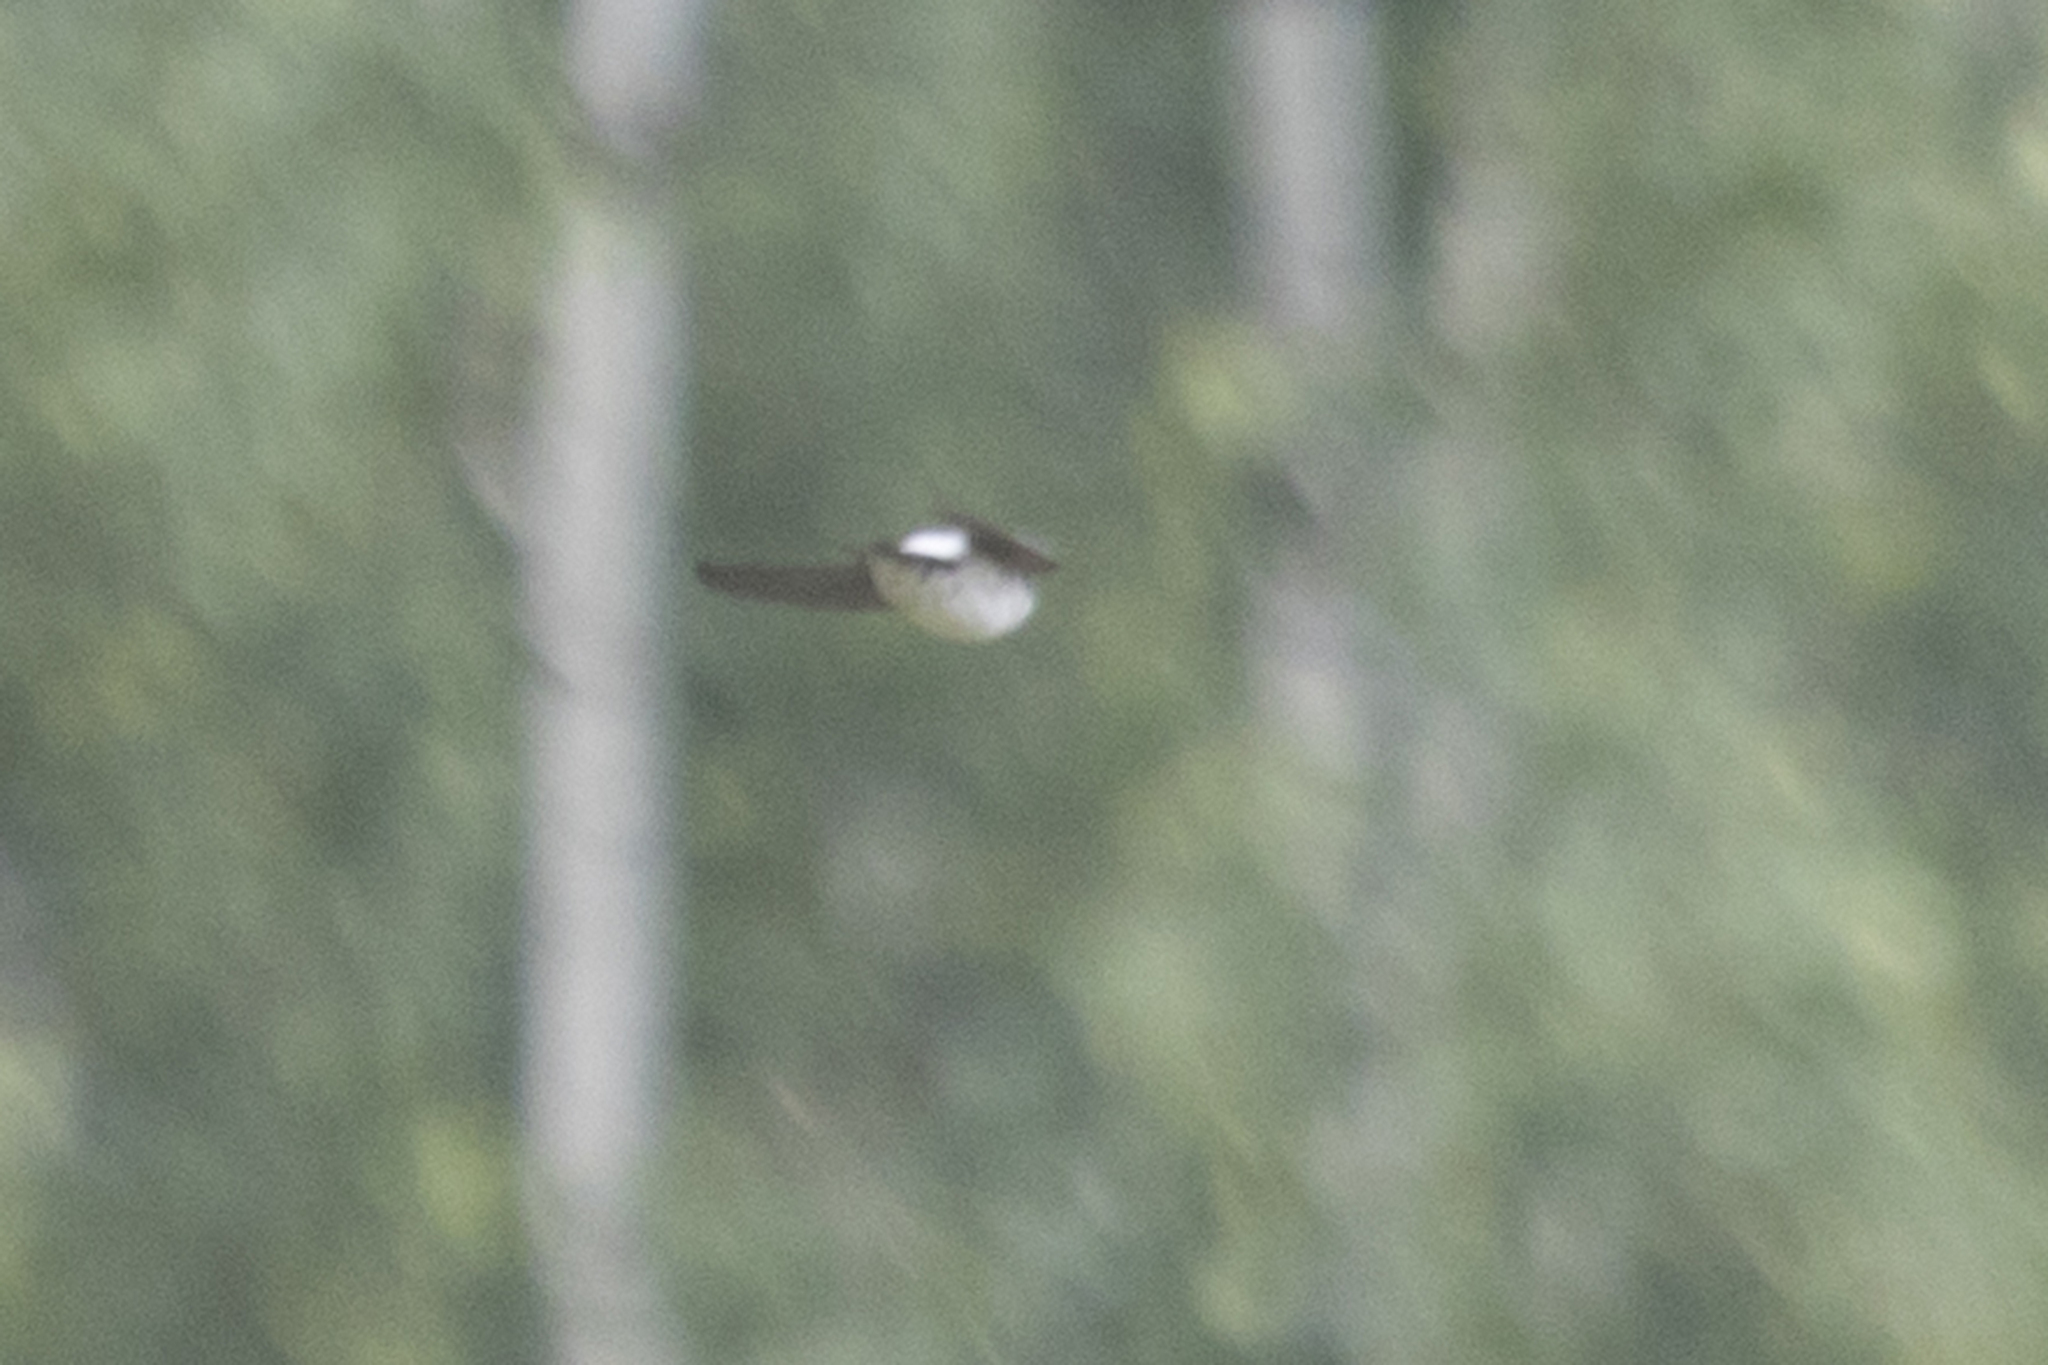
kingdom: Animalia
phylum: Chordata
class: Aves
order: Passeriformes
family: Hirundinidae
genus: Delichon
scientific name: Delichon urbicum
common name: Common house martin
